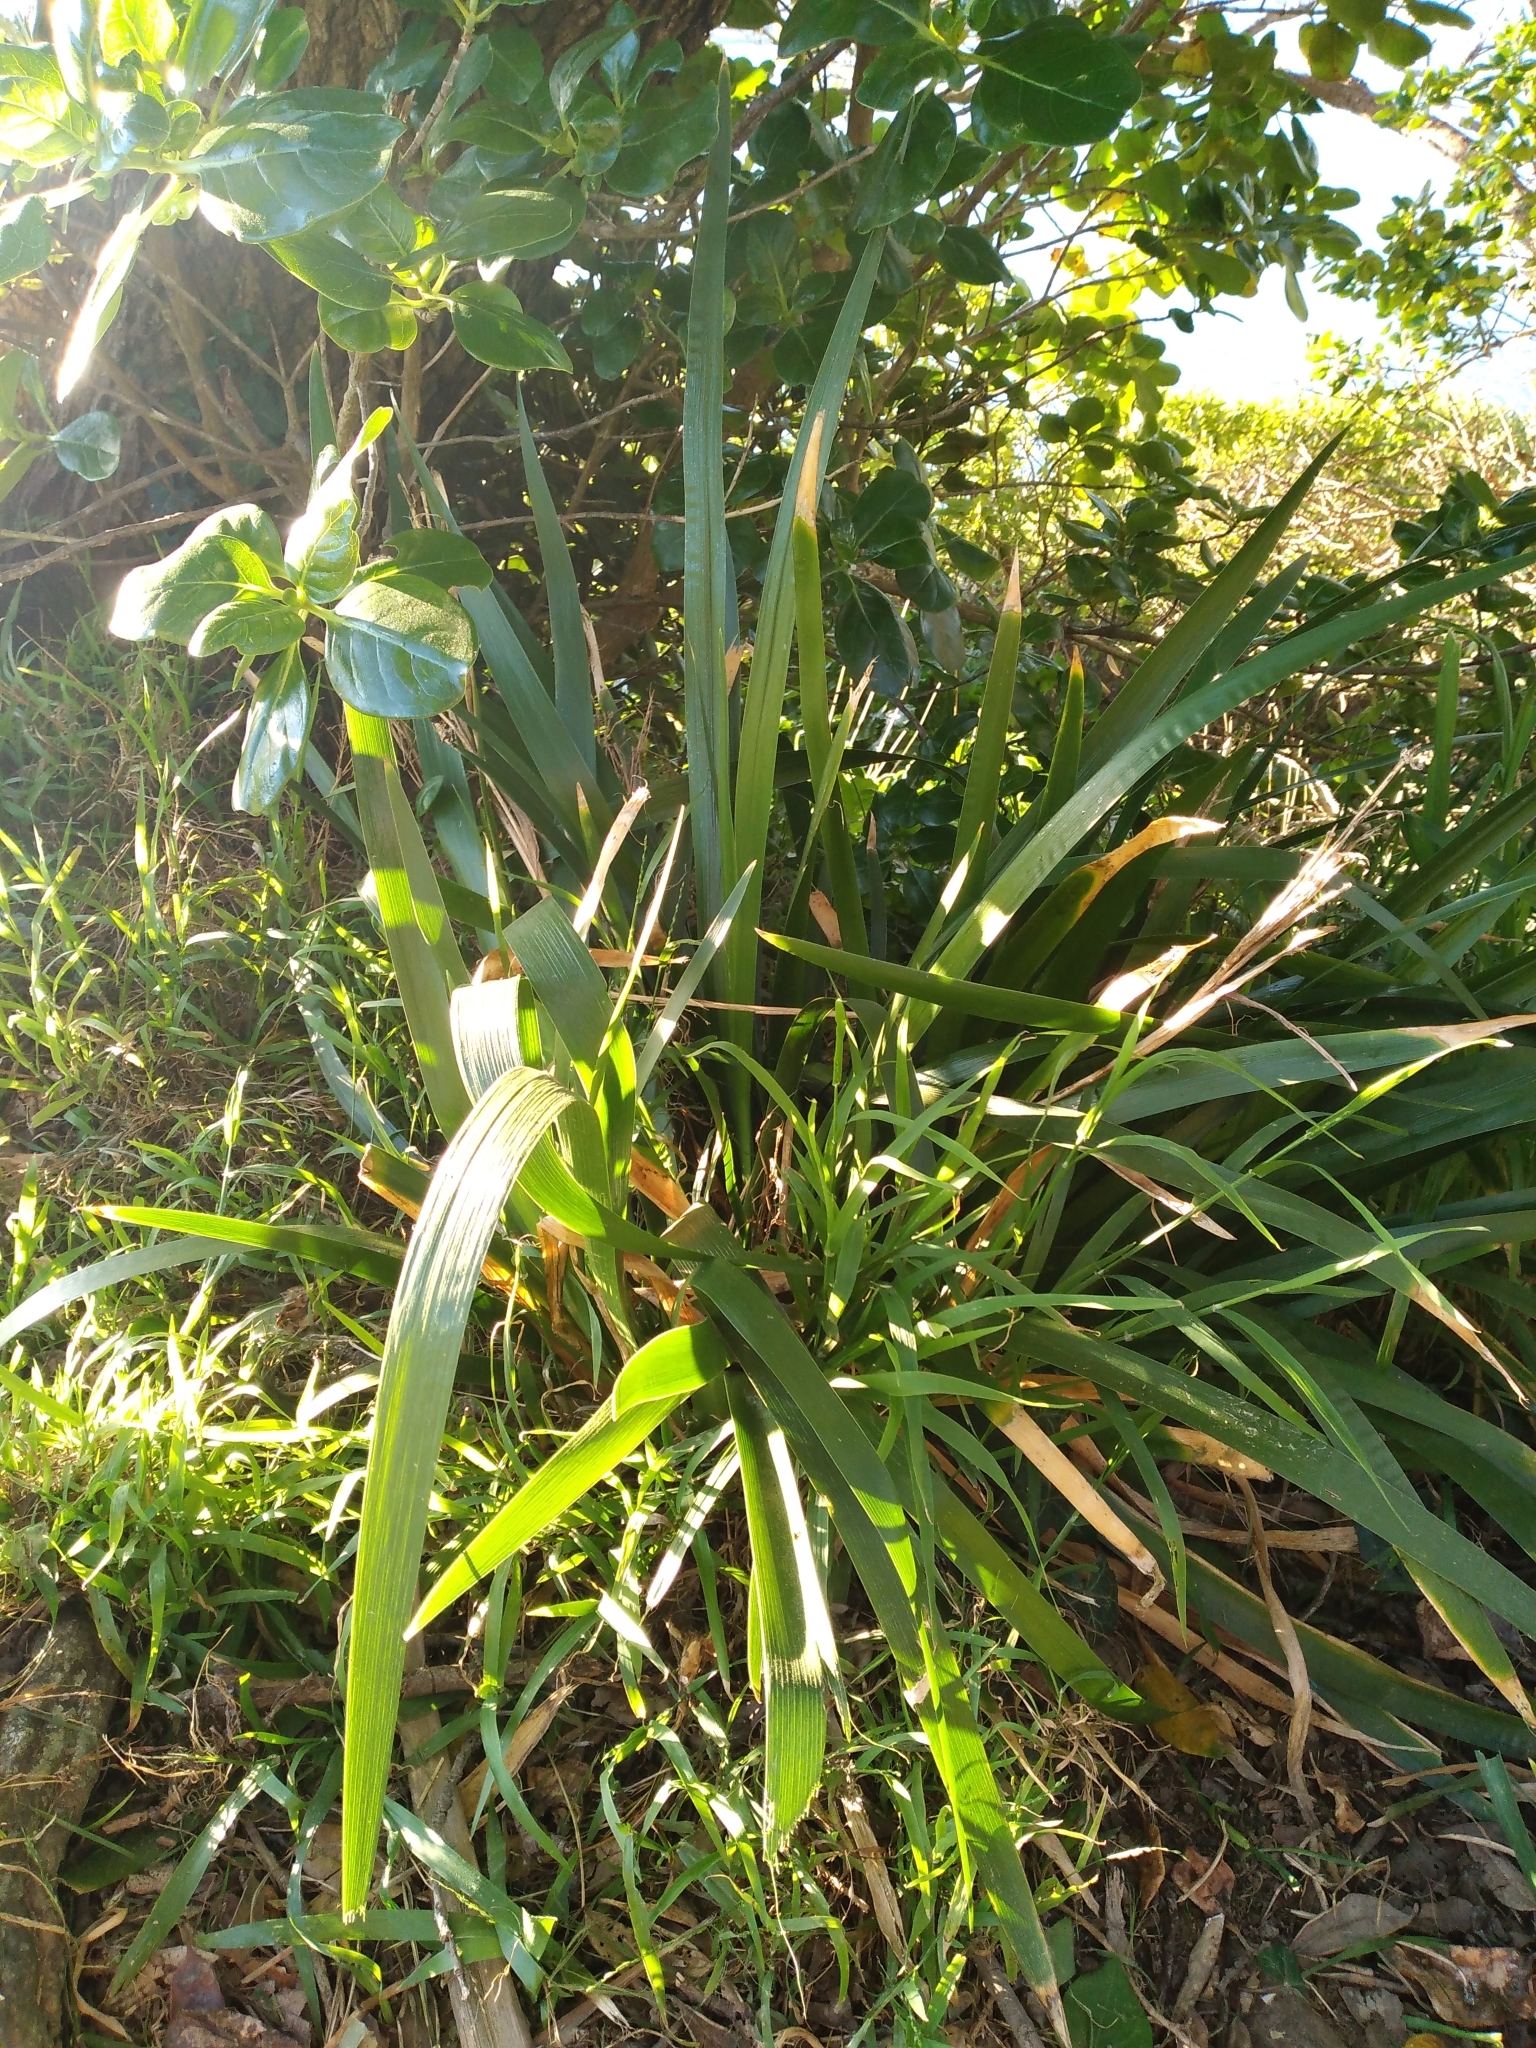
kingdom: Plantae
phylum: Tracheophyta
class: Liliopsida
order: Asparagales
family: Iridaceae
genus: Iris
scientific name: Iris foetidissima
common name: Stinking iris
